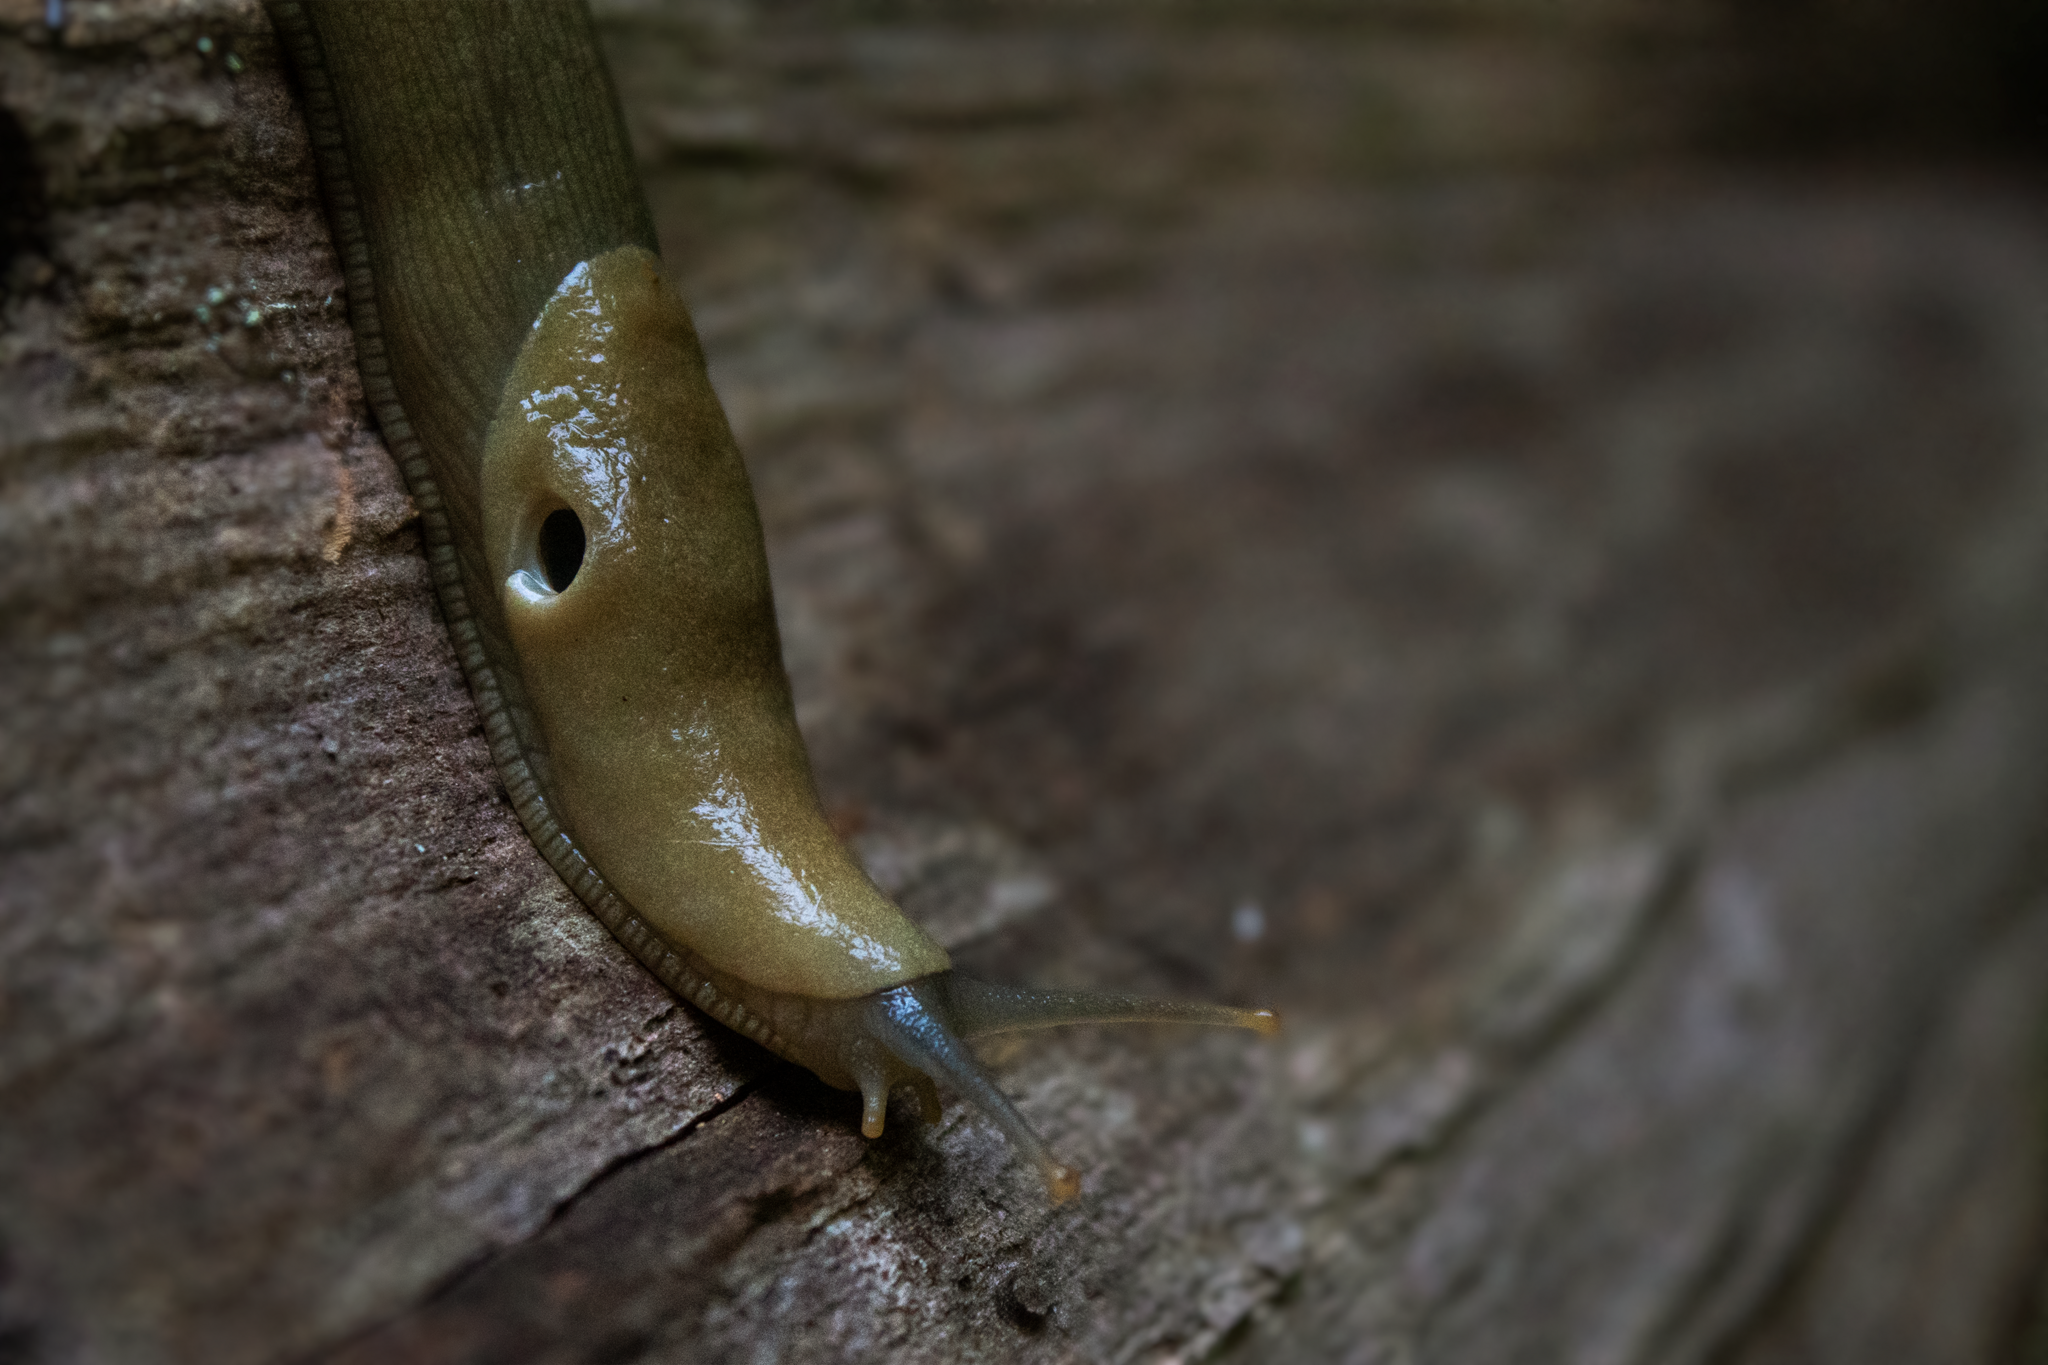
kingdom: Animalia
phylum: Mollusca
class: Gastropoda
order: Stylommatophora
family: Ariolimacidae
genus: Ariolimax
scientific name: Ariolimax columbianus
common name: Pacific banana slug
